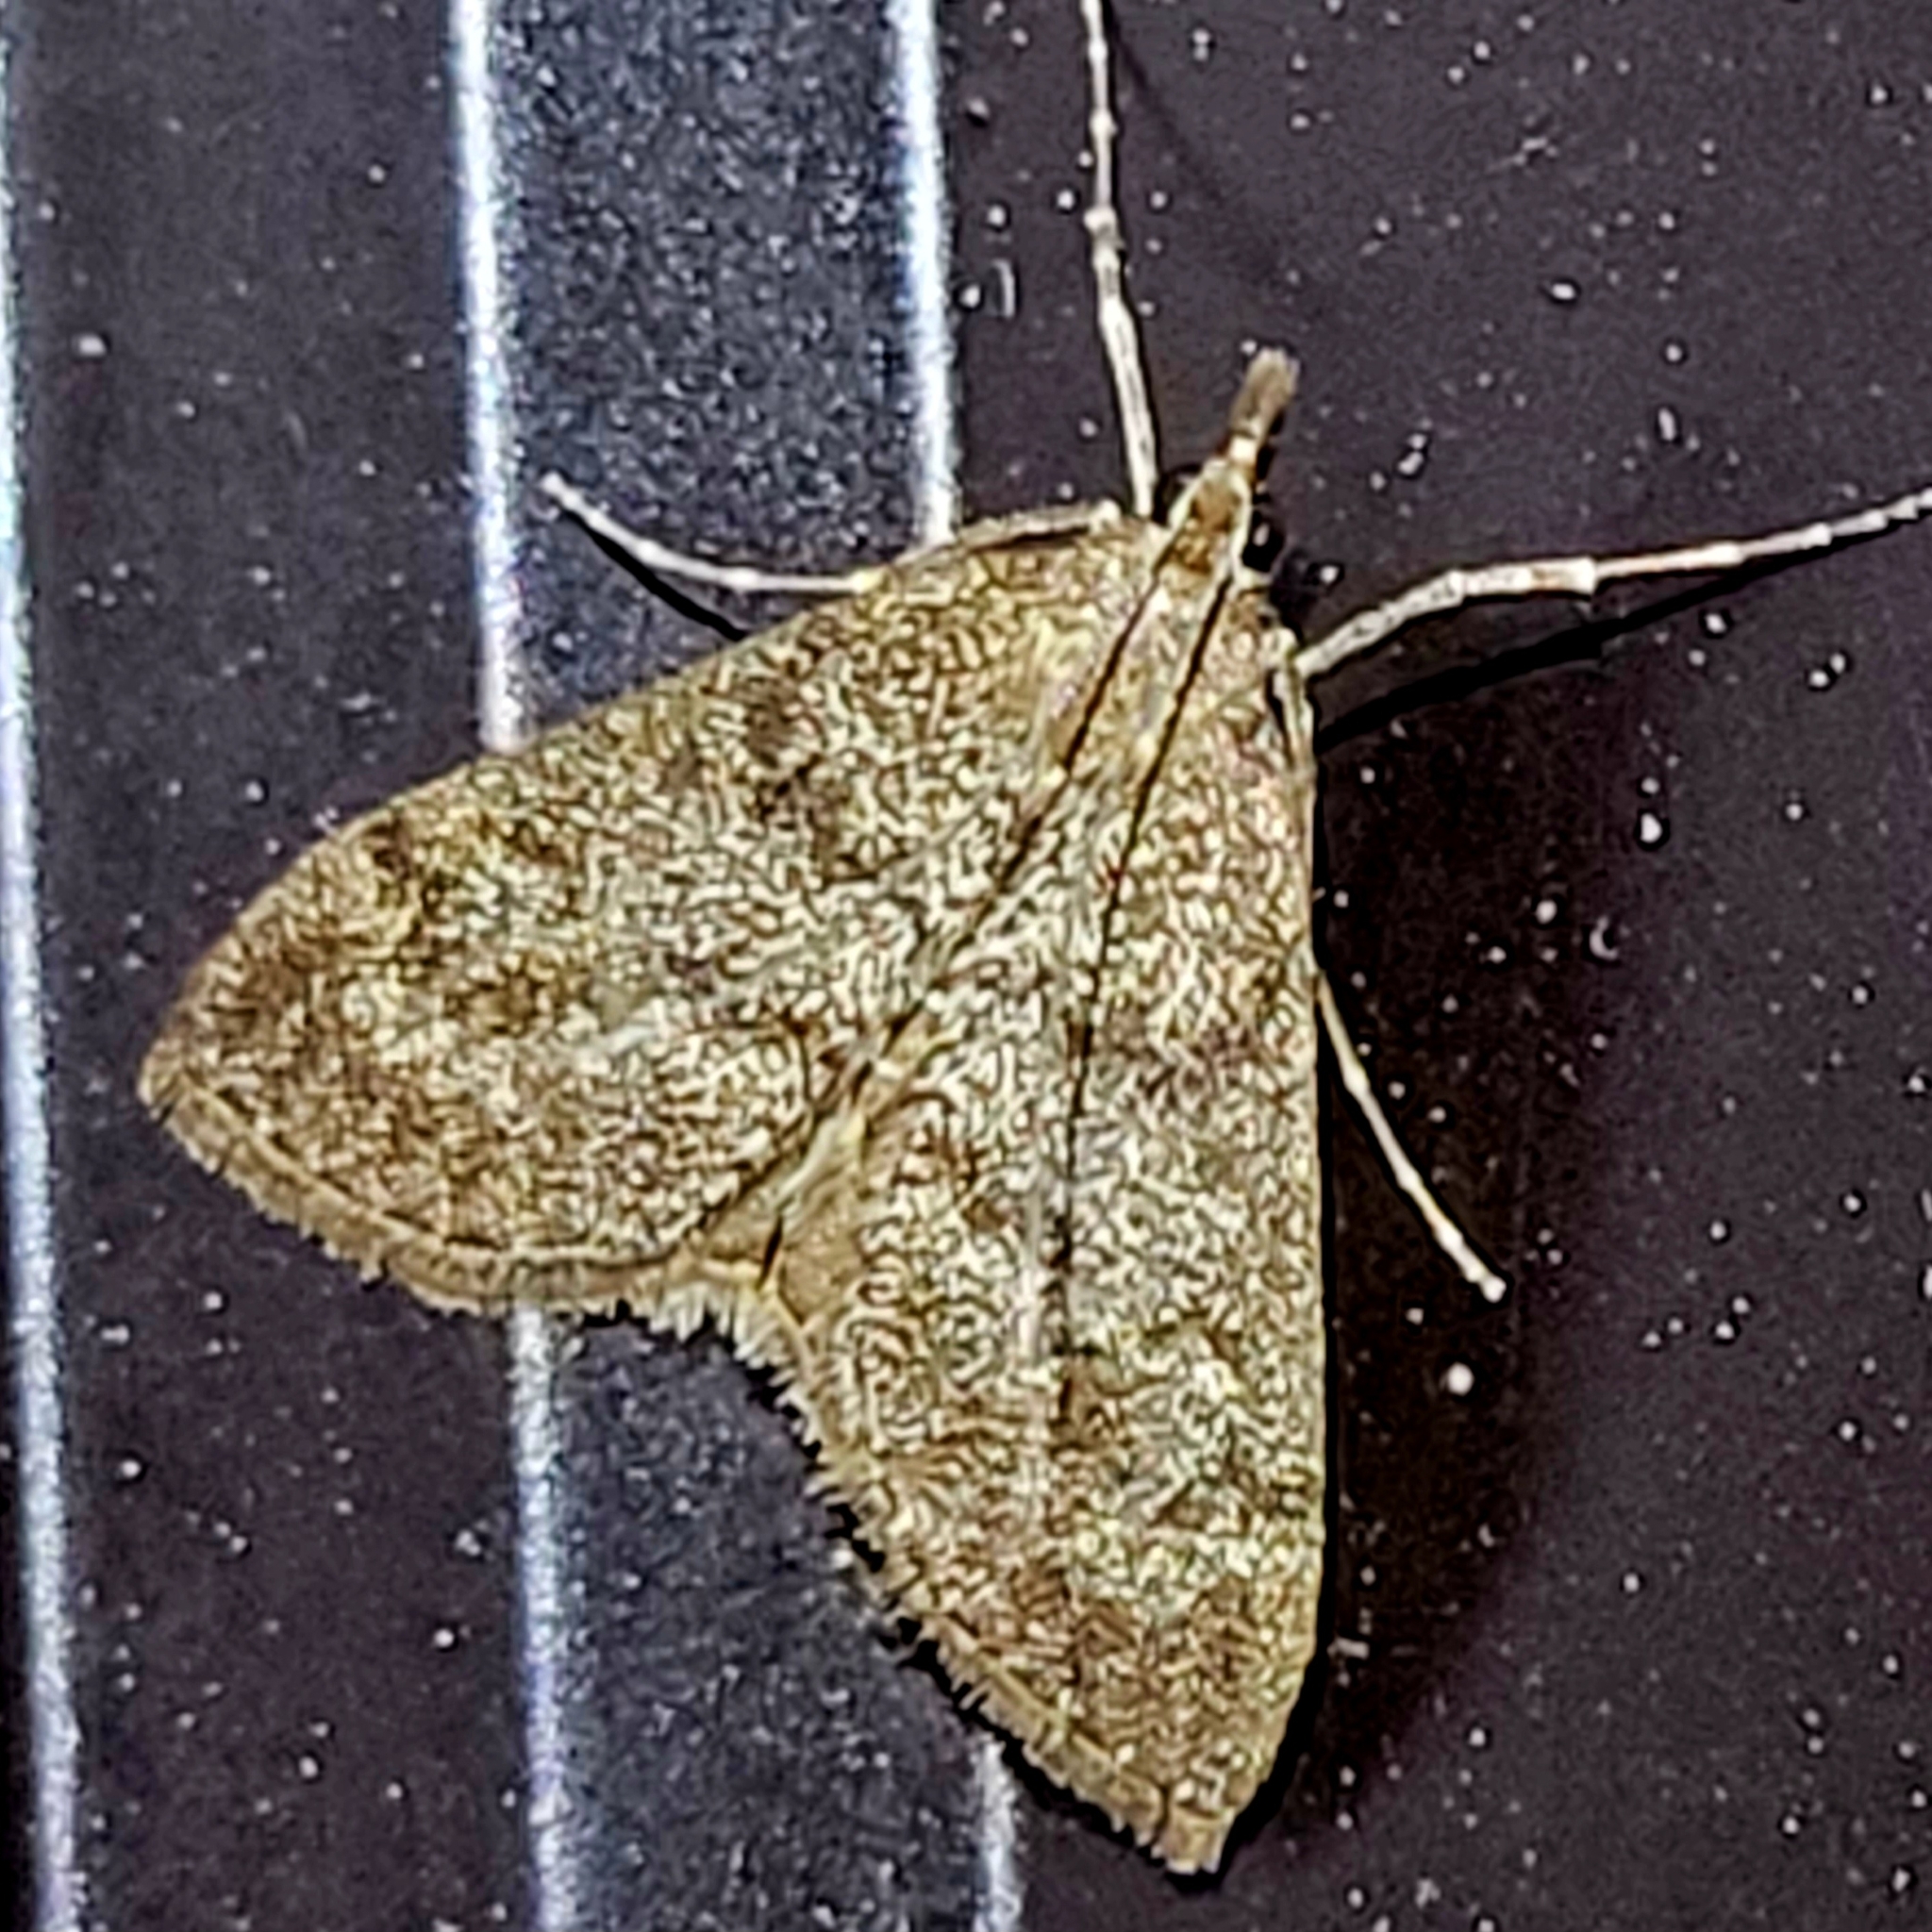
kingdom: Animalia
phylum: Arthropoda
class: Insecta
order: Lepidoptera
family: Crambidae
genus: Saucrobotys
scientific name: Saucrobotys fumoferalis
